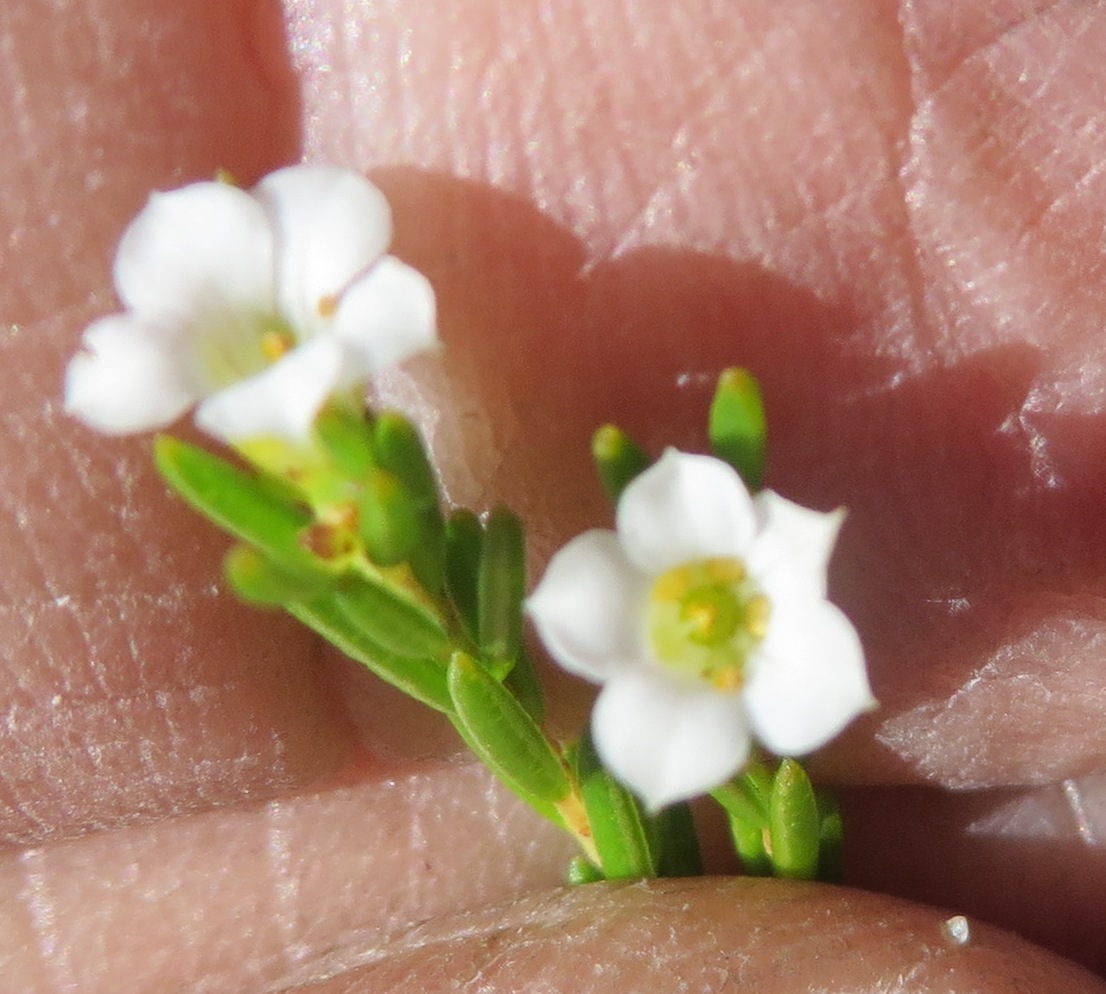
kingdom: Plantae
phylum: Tracheophyta
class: Magnoliopsida
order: Sapindales
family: Rutaceae
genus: Coleonema
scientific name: Coleonema album
